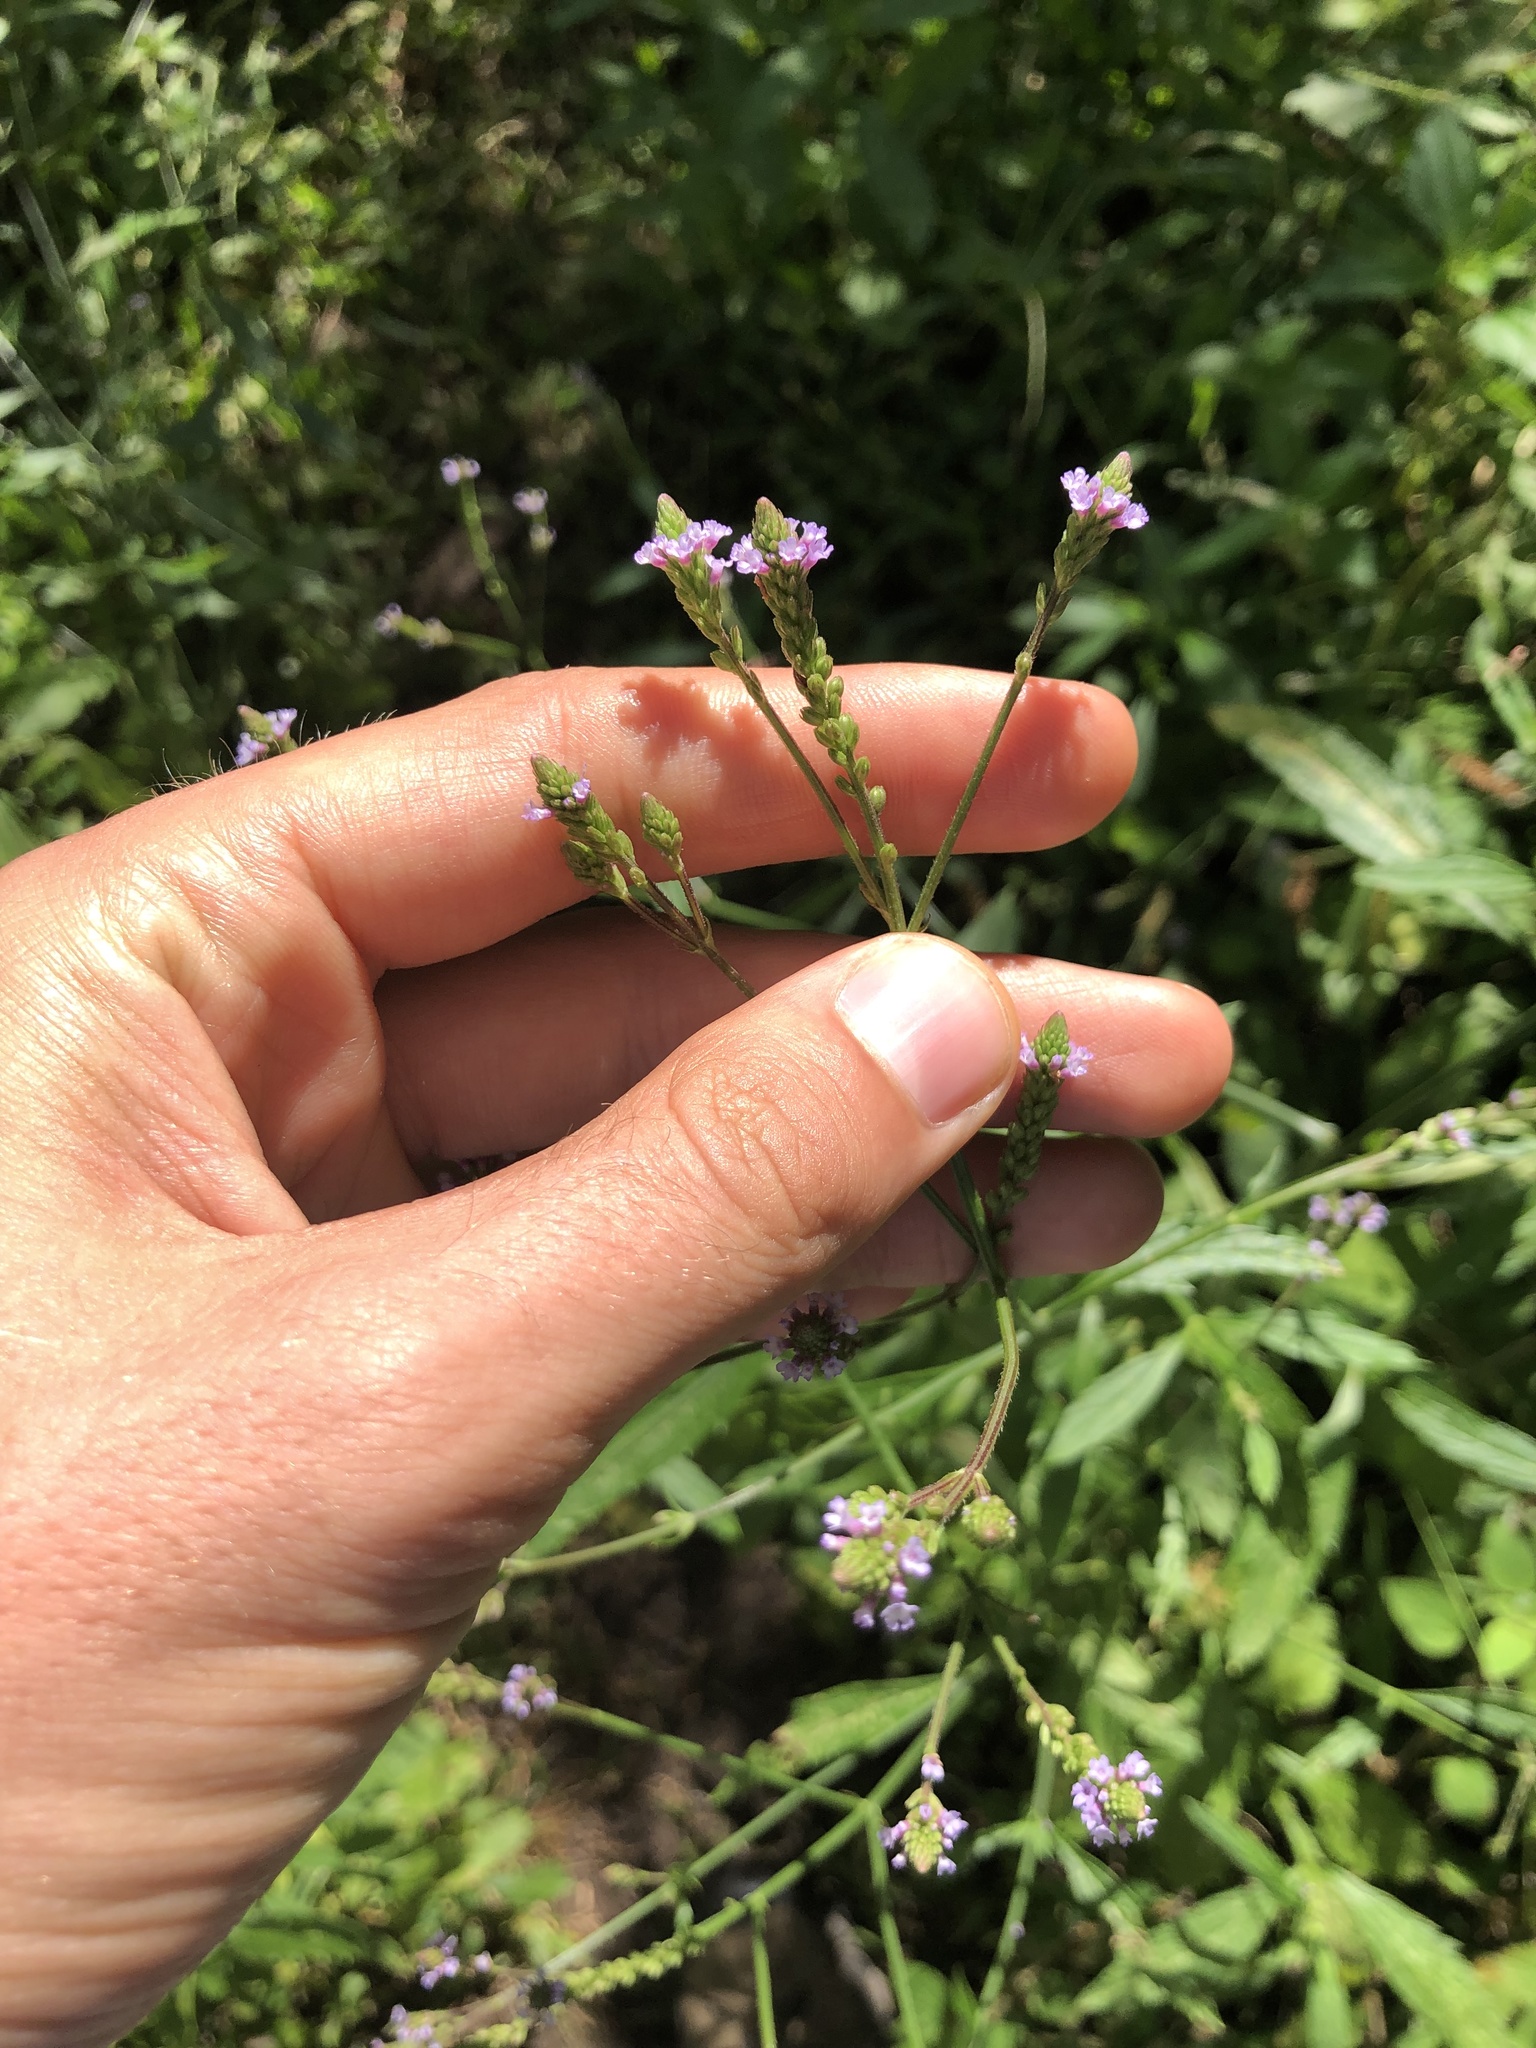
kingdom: Plantae
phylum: Tracheophyta
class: Magnoliopsida
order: Lamiales
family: Verbenaceae
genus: Verbena
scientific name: Verbena litoralis
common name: Seashore vervain
